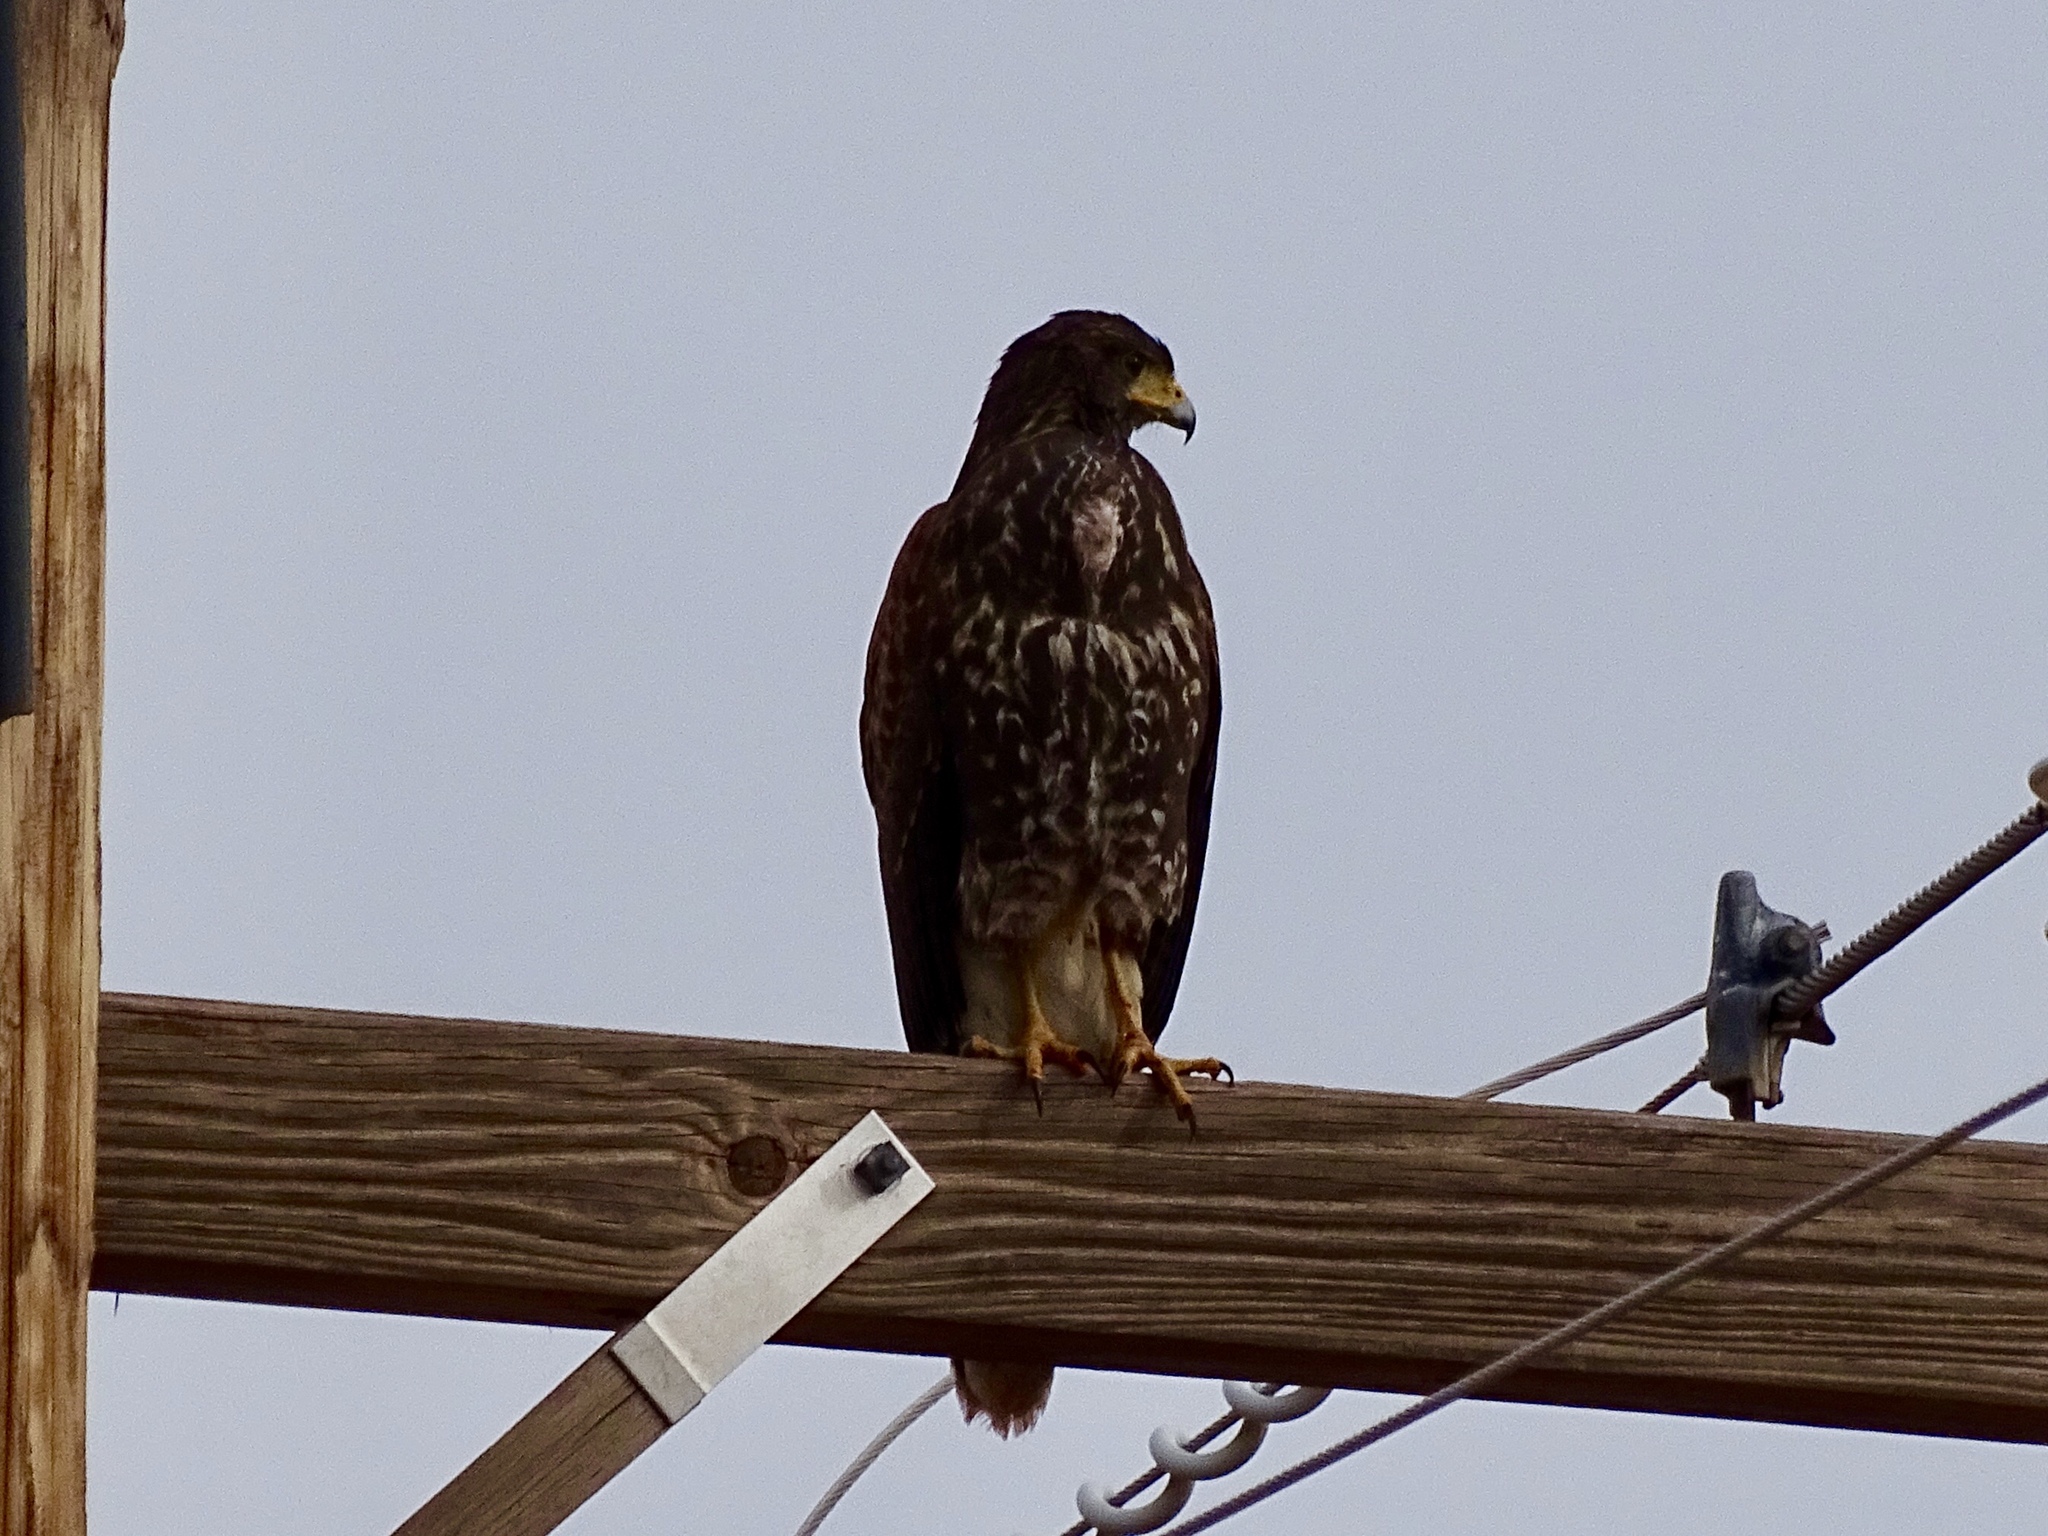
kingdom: Animalia
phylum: Chordata
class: Aves
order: Accipitriformes
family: Accipitridae
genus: Parabuteo
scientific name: Parabuteo unicinctus
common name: Harris's hawk
